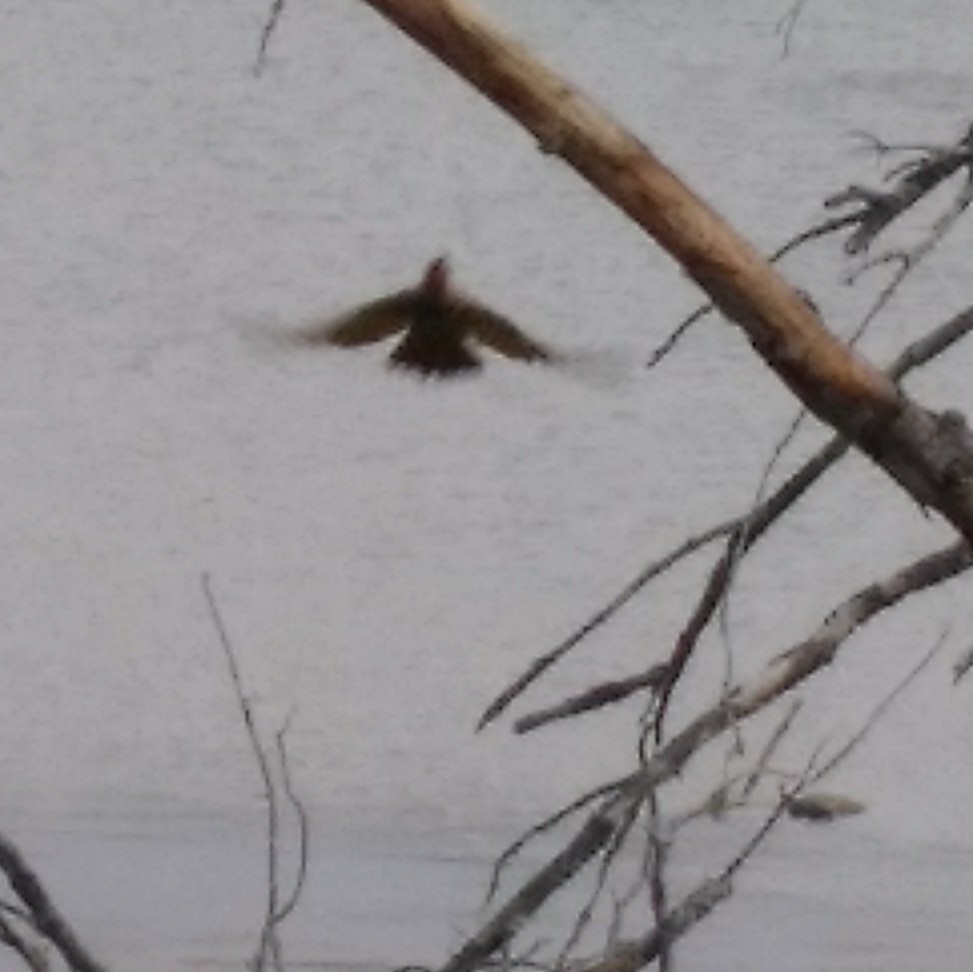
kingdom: Animalia
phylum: Chordata
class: Aves
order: Piciformes
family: Picidae
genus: Colaptes
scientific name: Colaptes auratus
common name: Northern flicker
